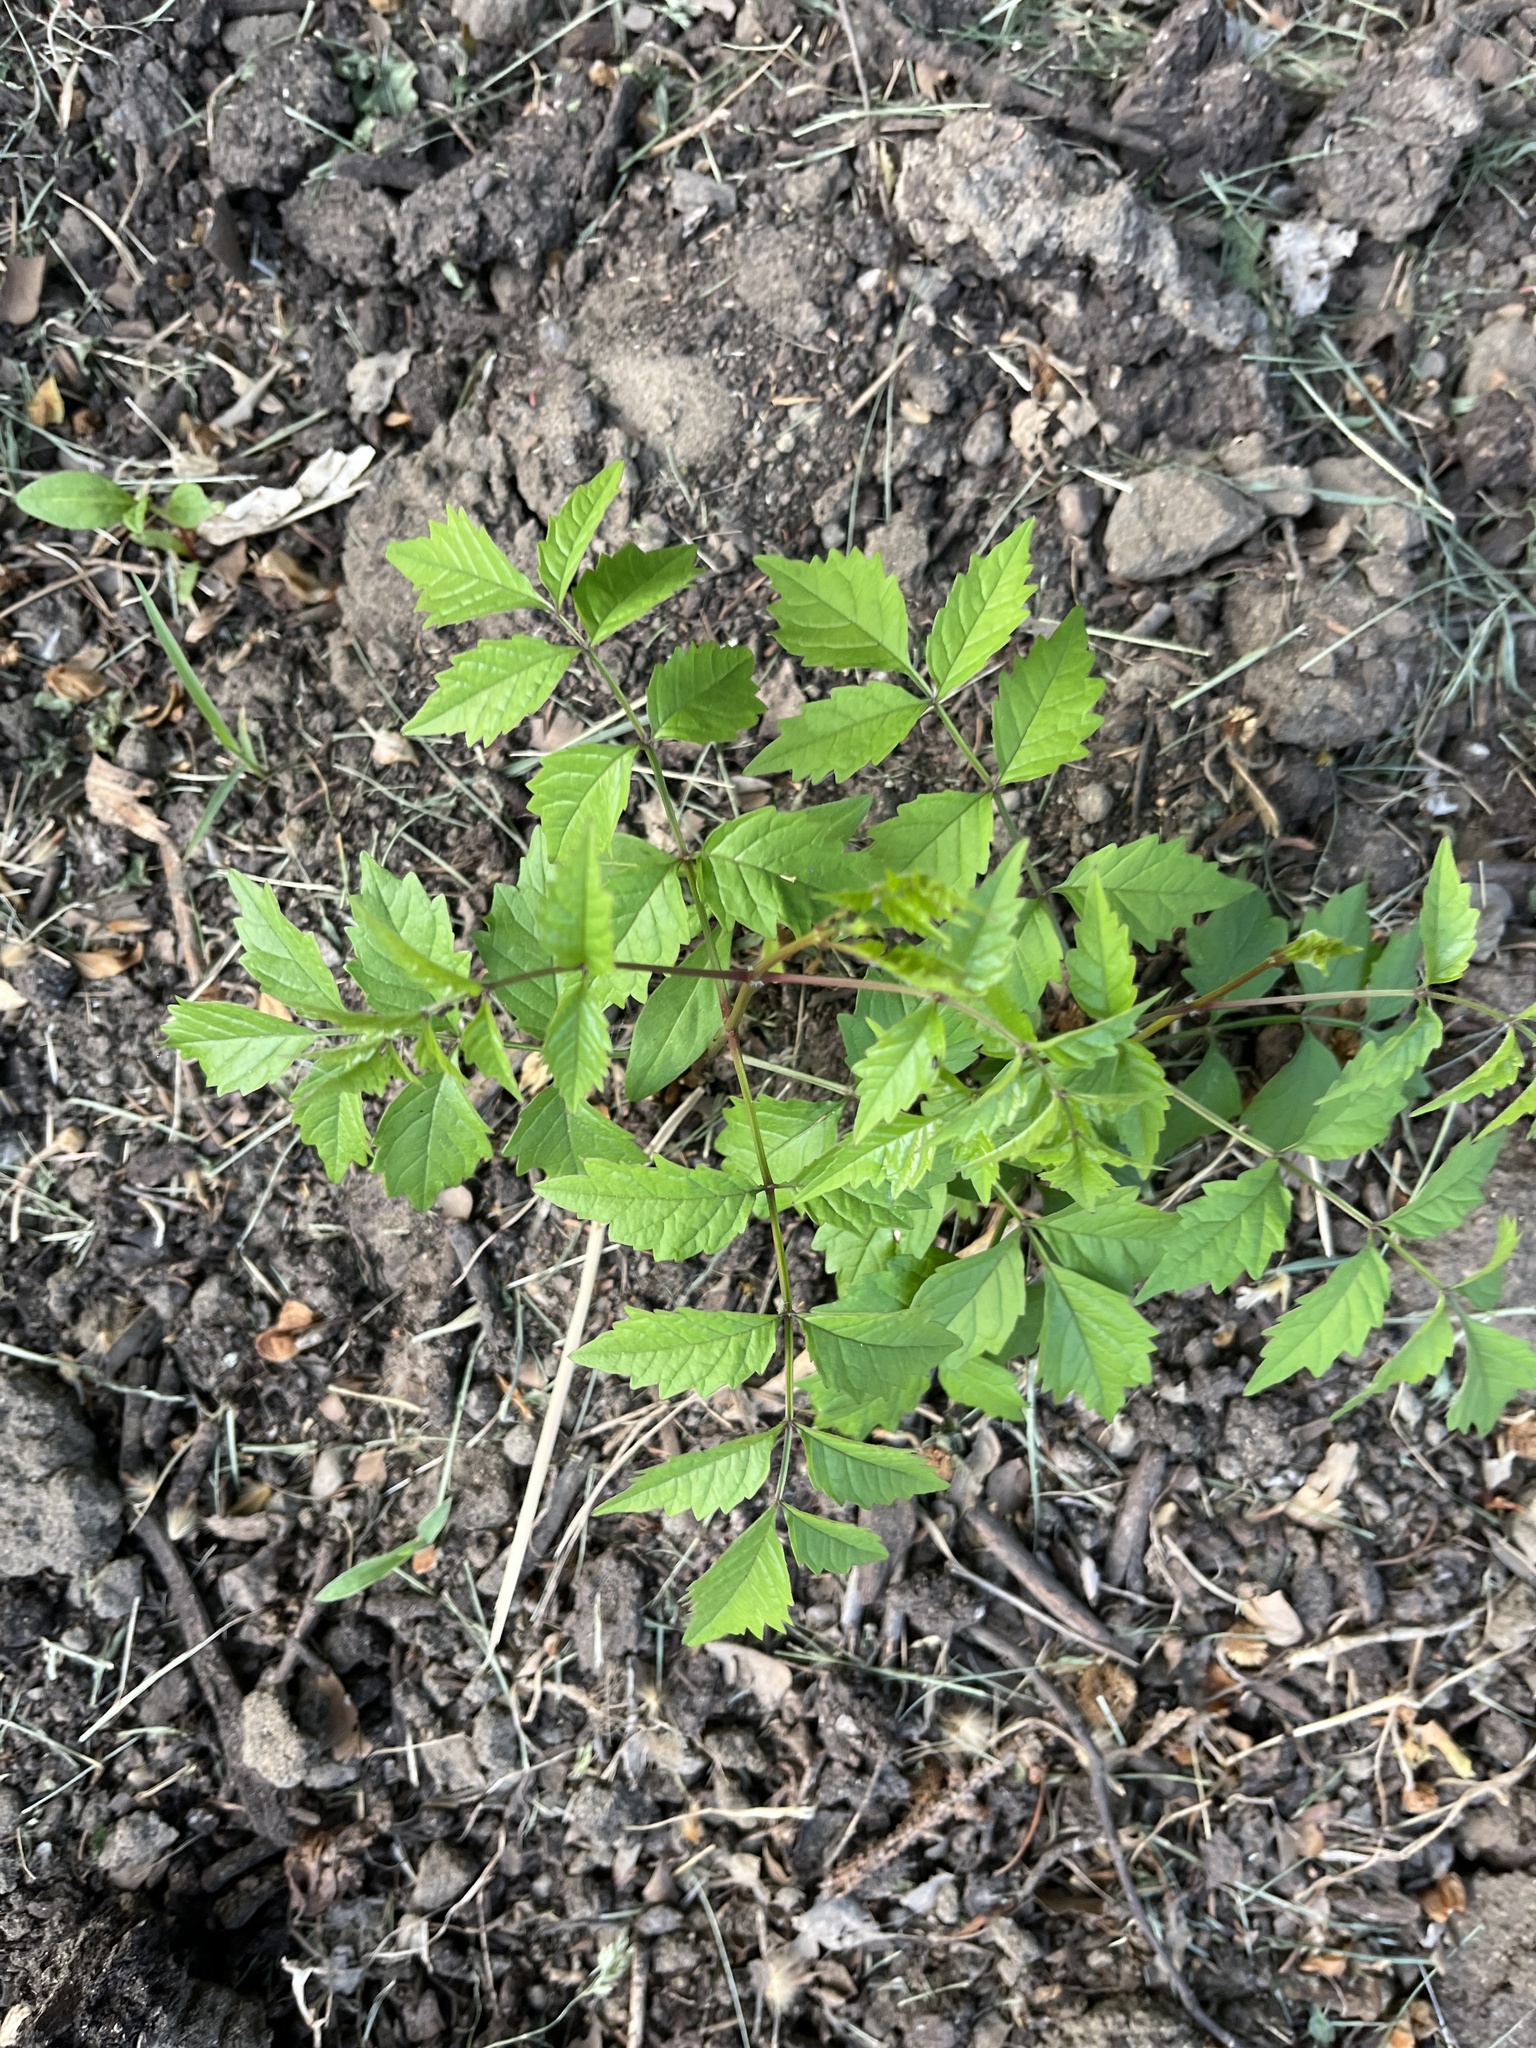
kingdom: Plantae
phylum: Tracheophyta
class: Magnoliopsida
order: Lamiales
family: Bignoniaceae
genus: Campsis
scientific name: Campsis radicans
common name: Trumpet-creeper
